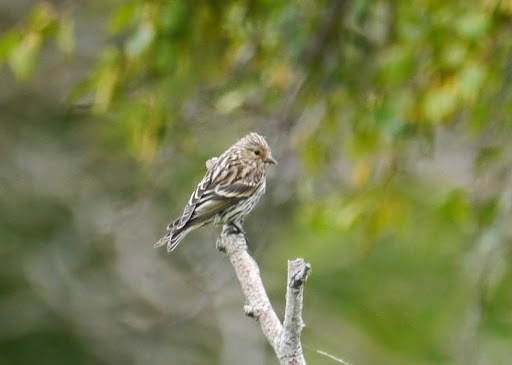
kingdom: Animalia
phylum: Chordata
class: Aves
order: Passeriformes
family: Fringillidae
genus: Spinus
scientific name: Spinus pinus
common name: Pine siskin
